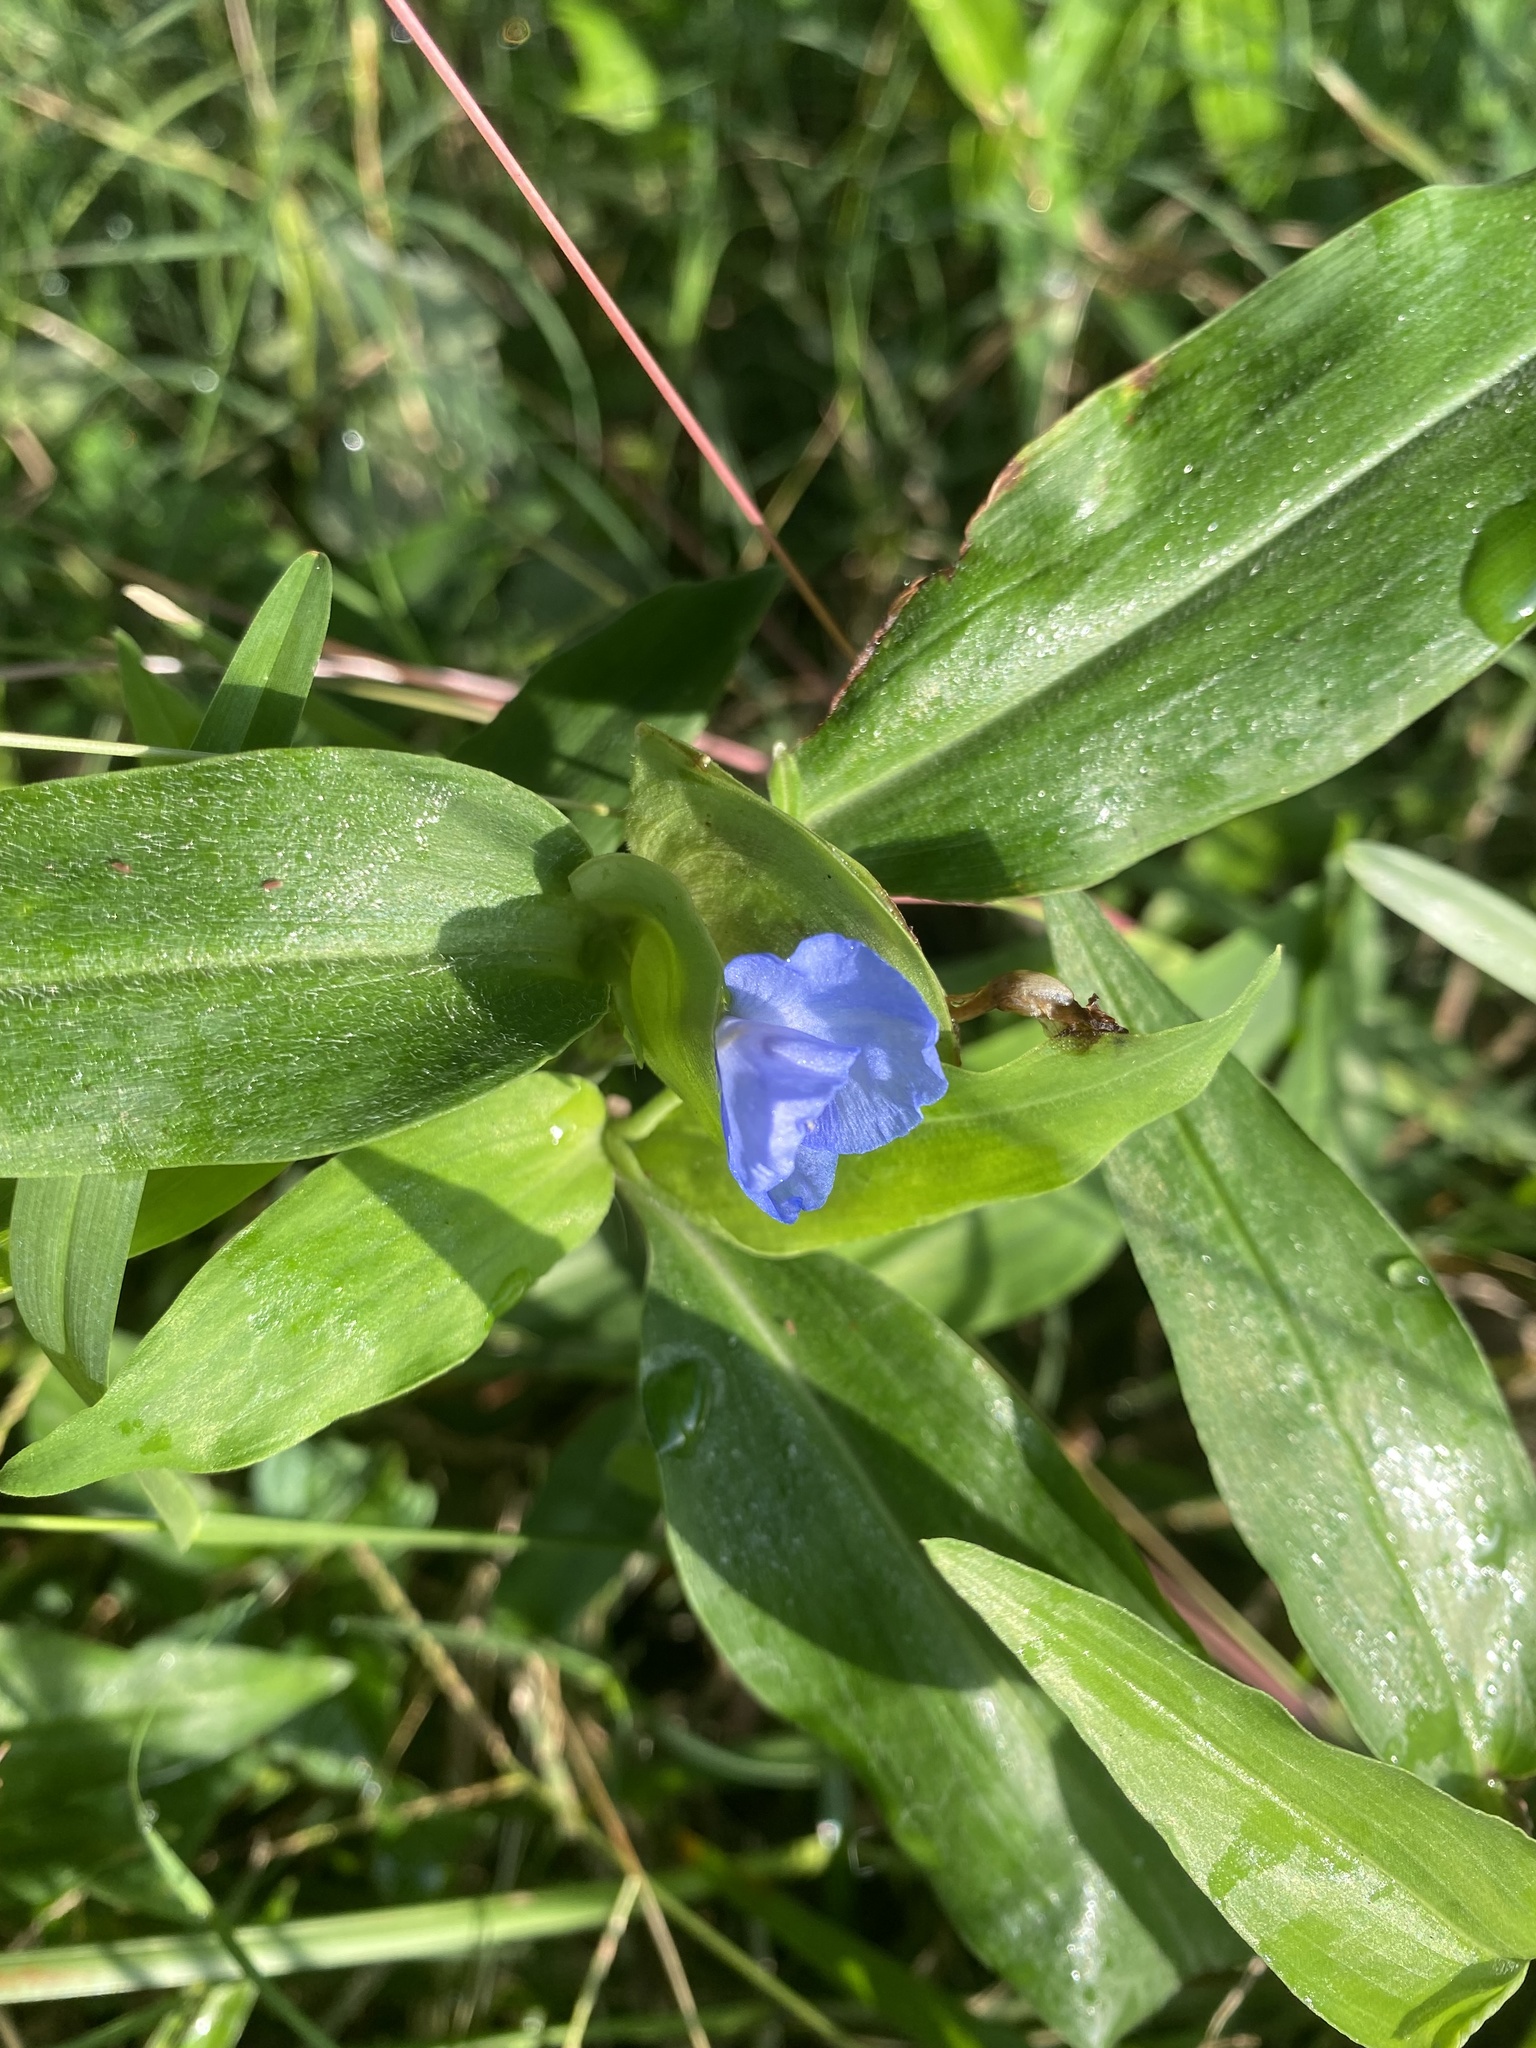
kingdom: Plantae
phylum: Tracheophyta
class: Liliopsida
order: Commelinales
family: Commelinaceae
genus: Commelina
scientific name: Commelina virginica
